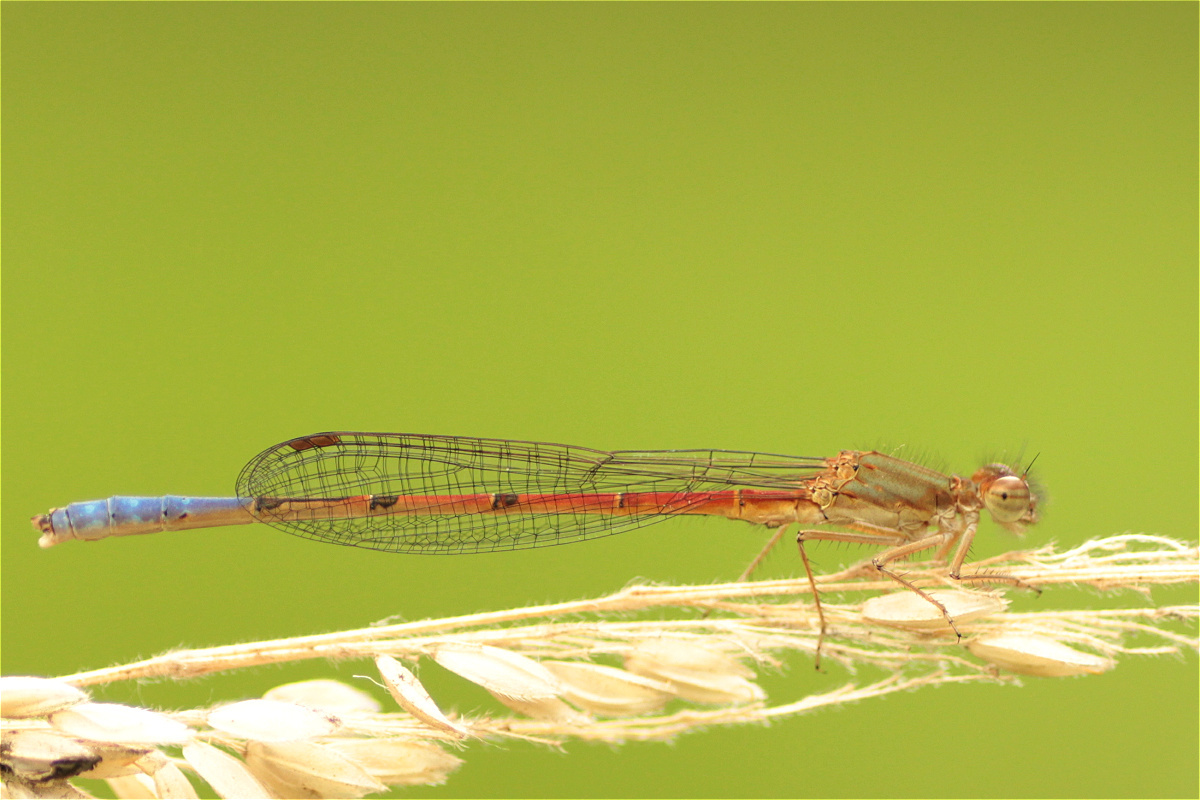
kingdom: Animalia
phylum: Arthropoda
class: Insecta
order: Odonata
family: Coenagrionidae
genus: Oxyallagma
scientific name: Oxyallagma dissidens
